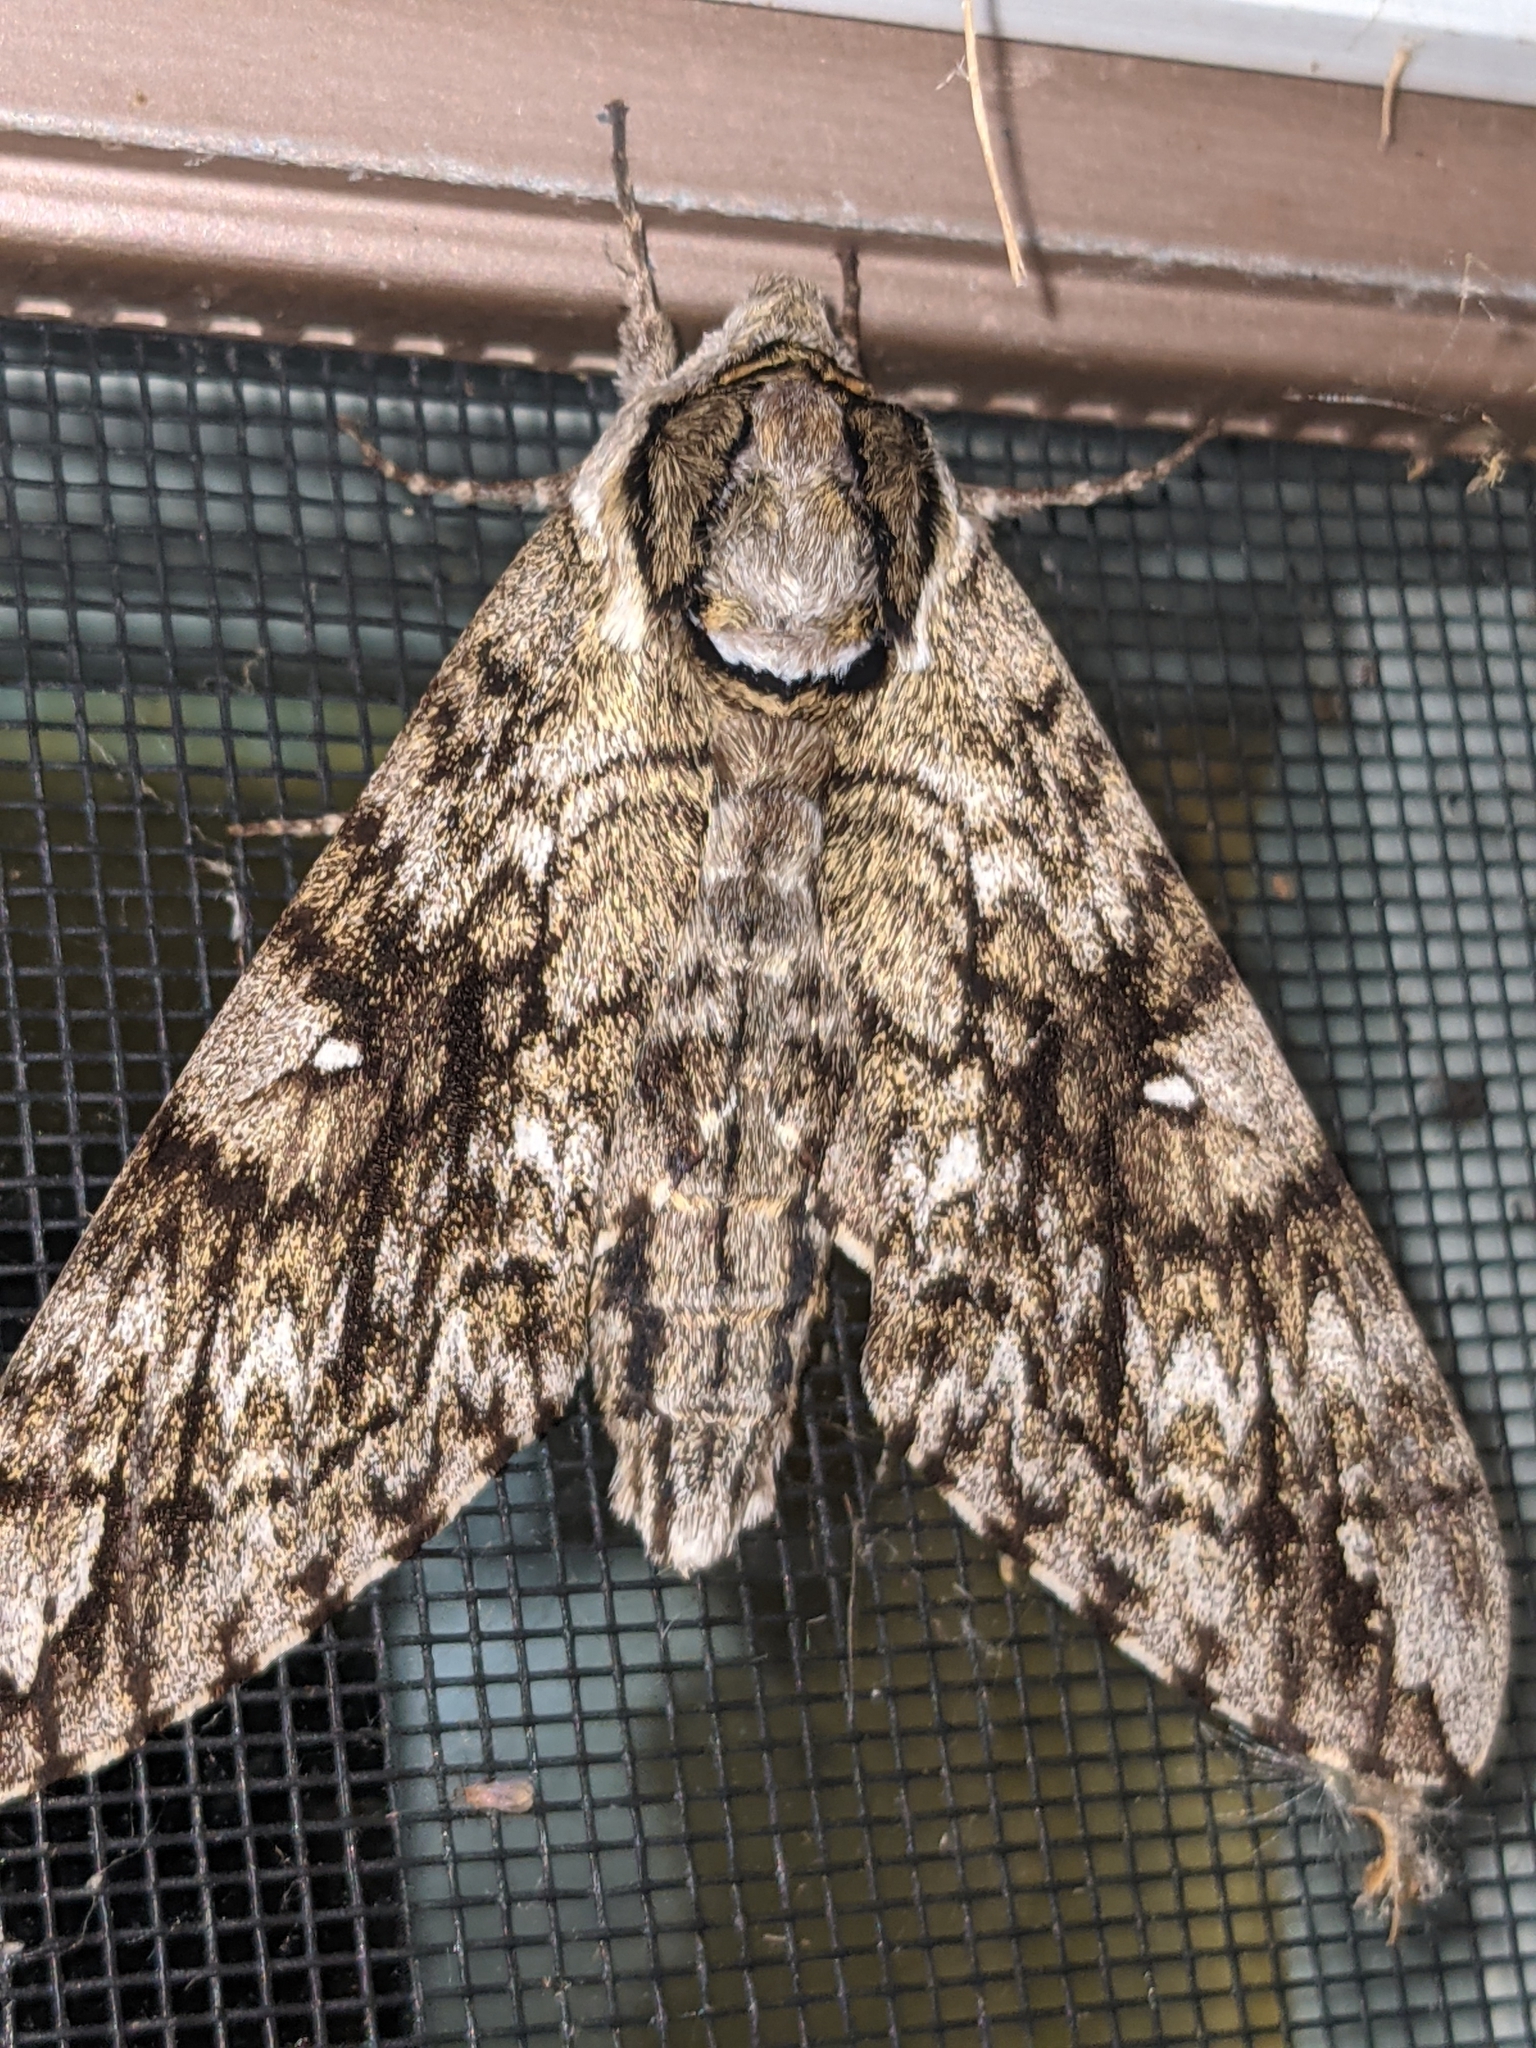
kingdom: Animalia
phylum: Arthropoda
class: Insecta
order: Lepidoptera
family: Sphingidae
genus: Ceratomia
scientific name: Ceratomia undulosa
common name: Waved sphinx
